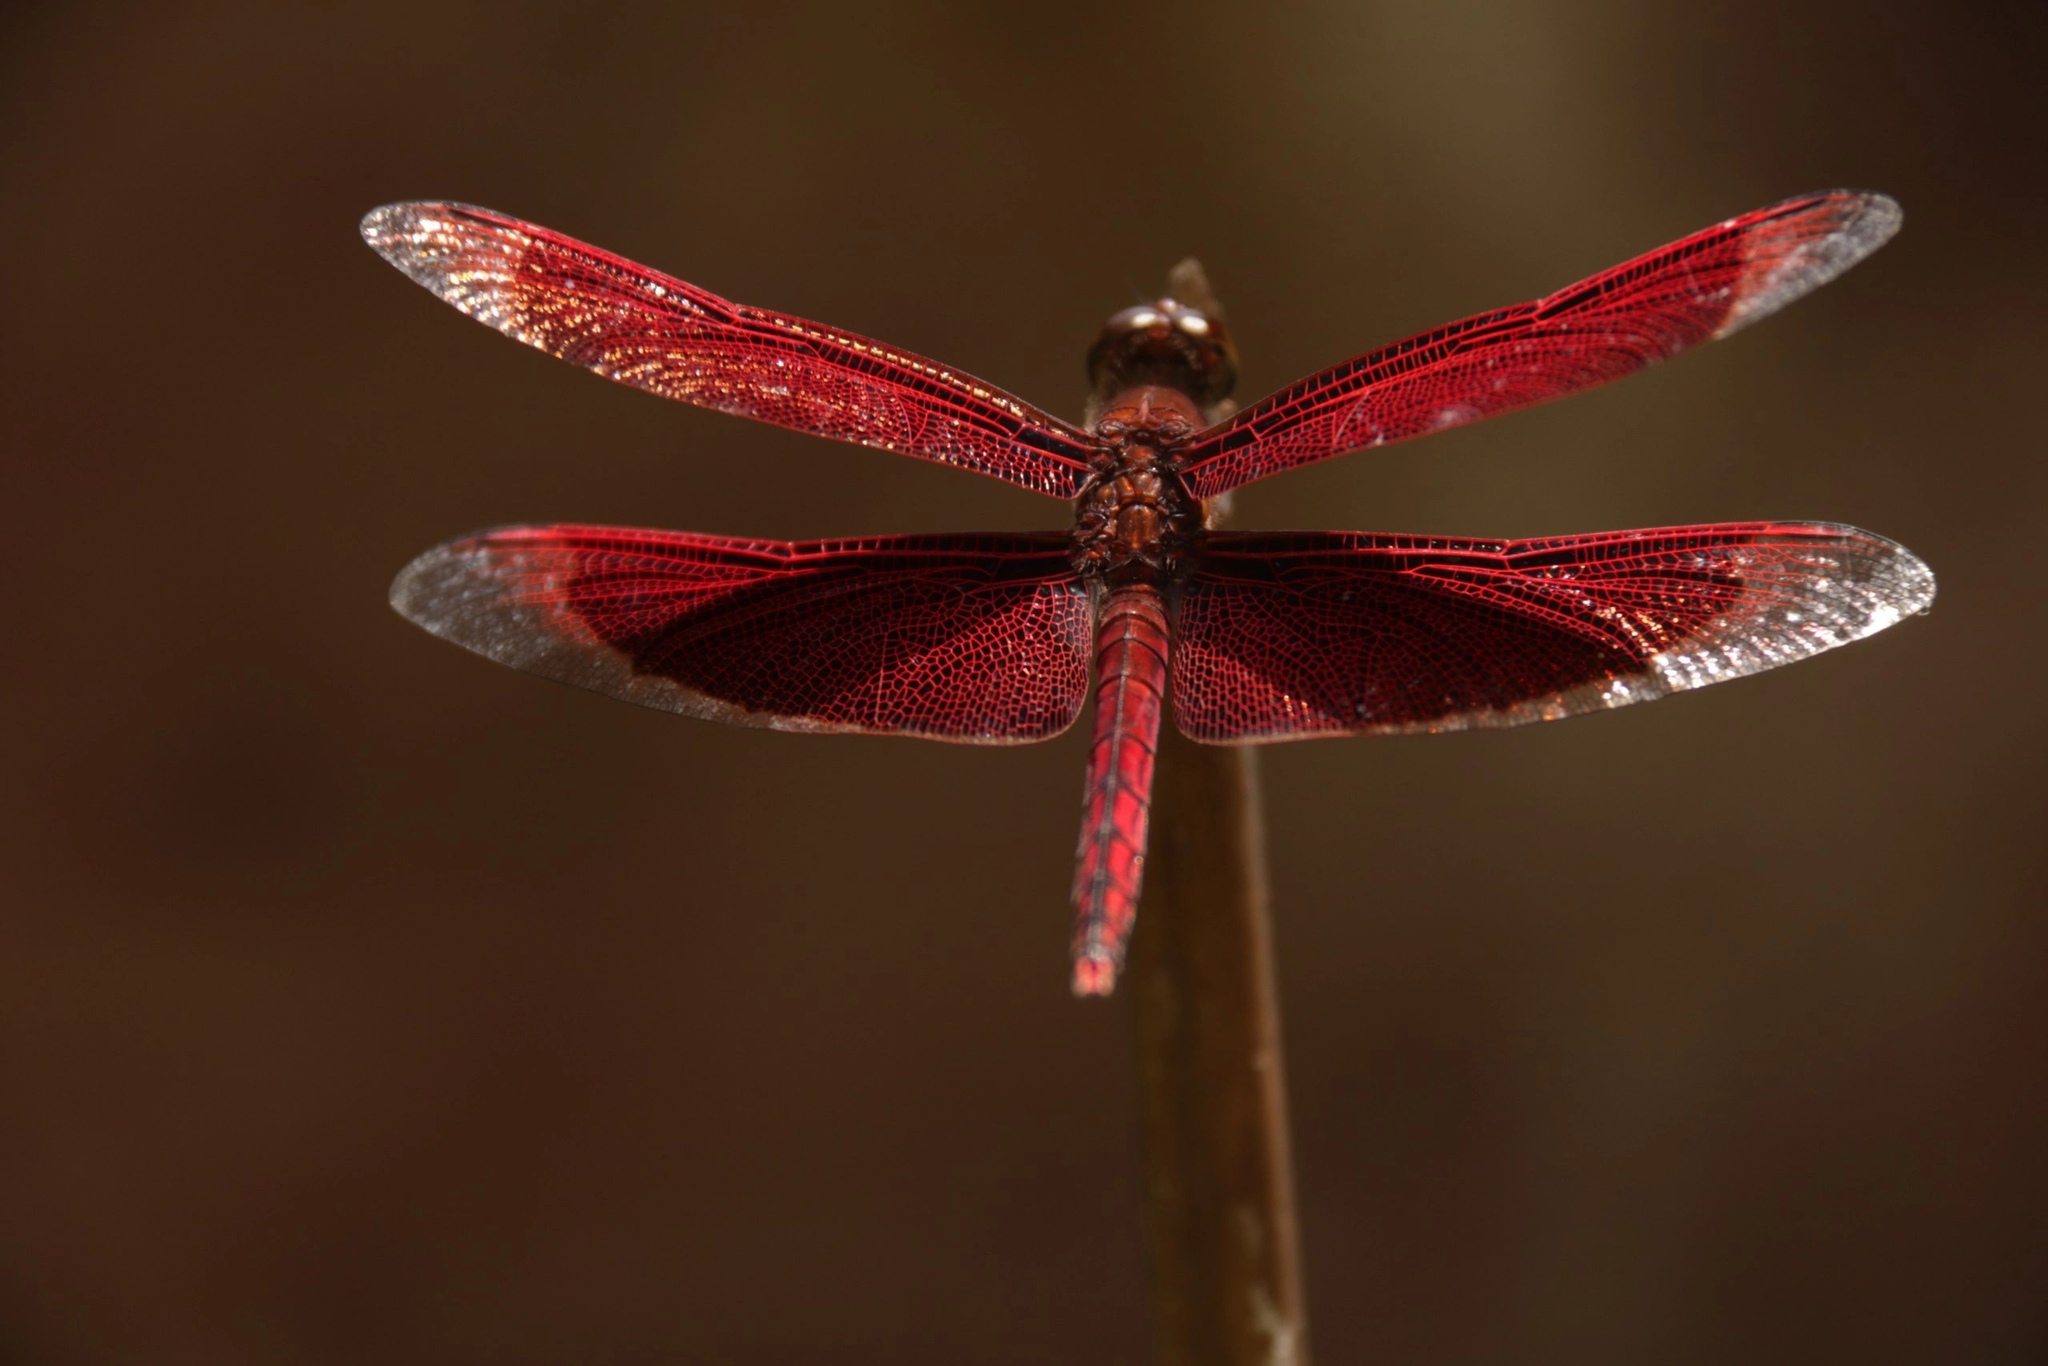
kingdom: Animalia
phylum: Arthropoda
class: Insecta
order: Odonata
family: Libellulidae
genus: Neurothemis
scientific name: Neurothemis ramburii
